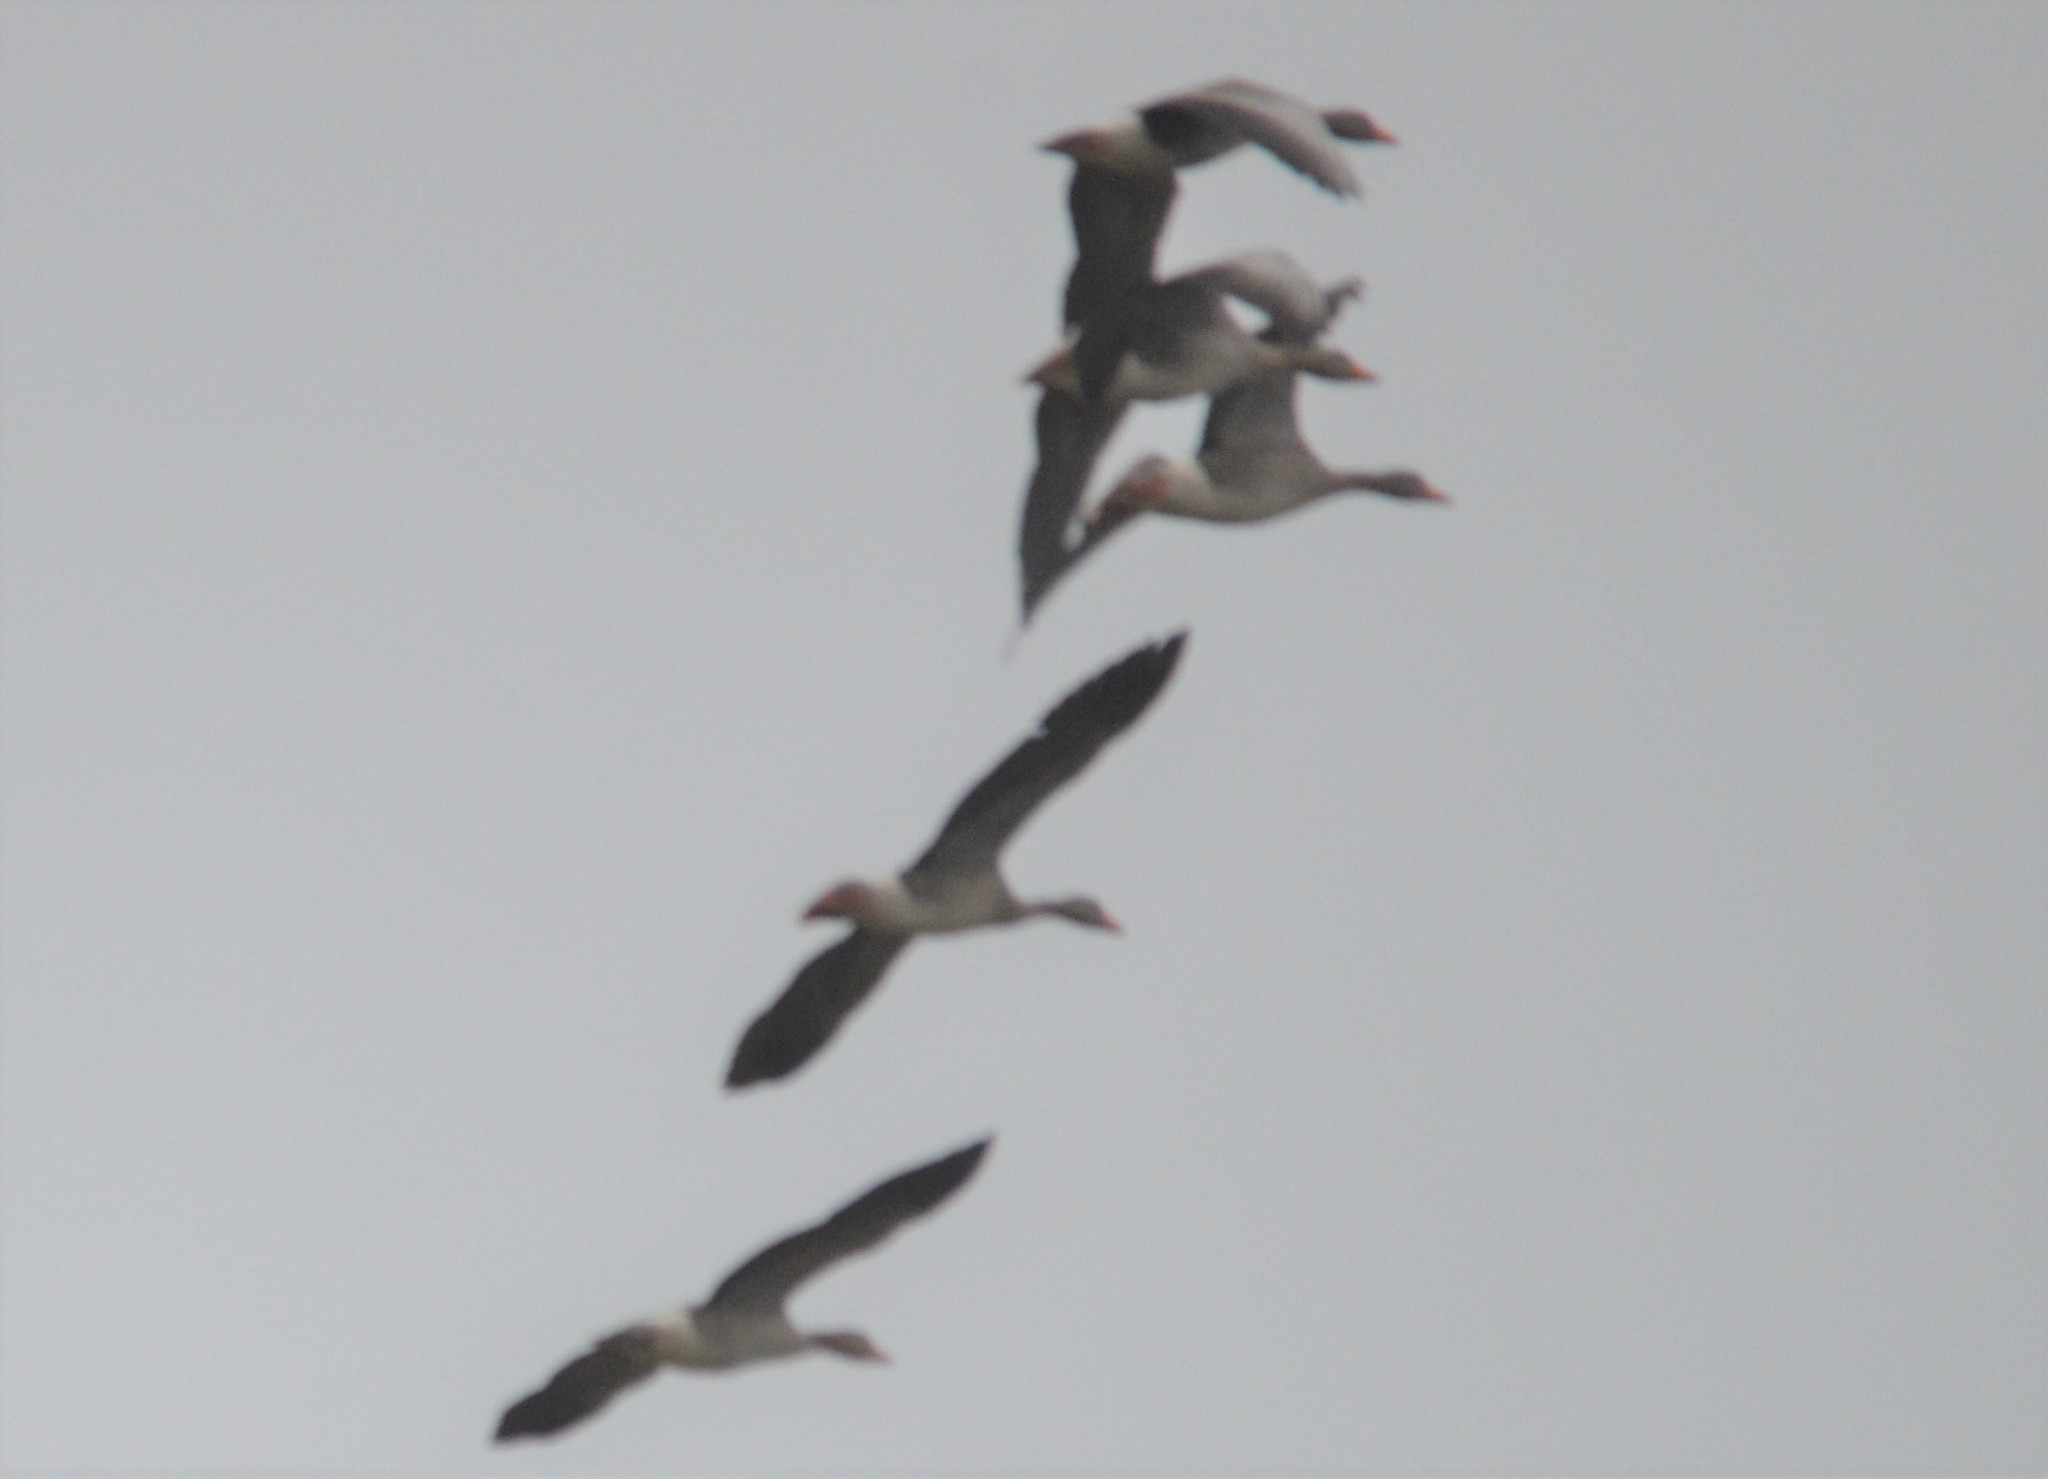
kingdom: Animalia
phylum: Chordata
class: Aves
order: Anseriformes
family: Anatidae
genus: Anser
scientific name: Anser anser
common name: Greylag goose
